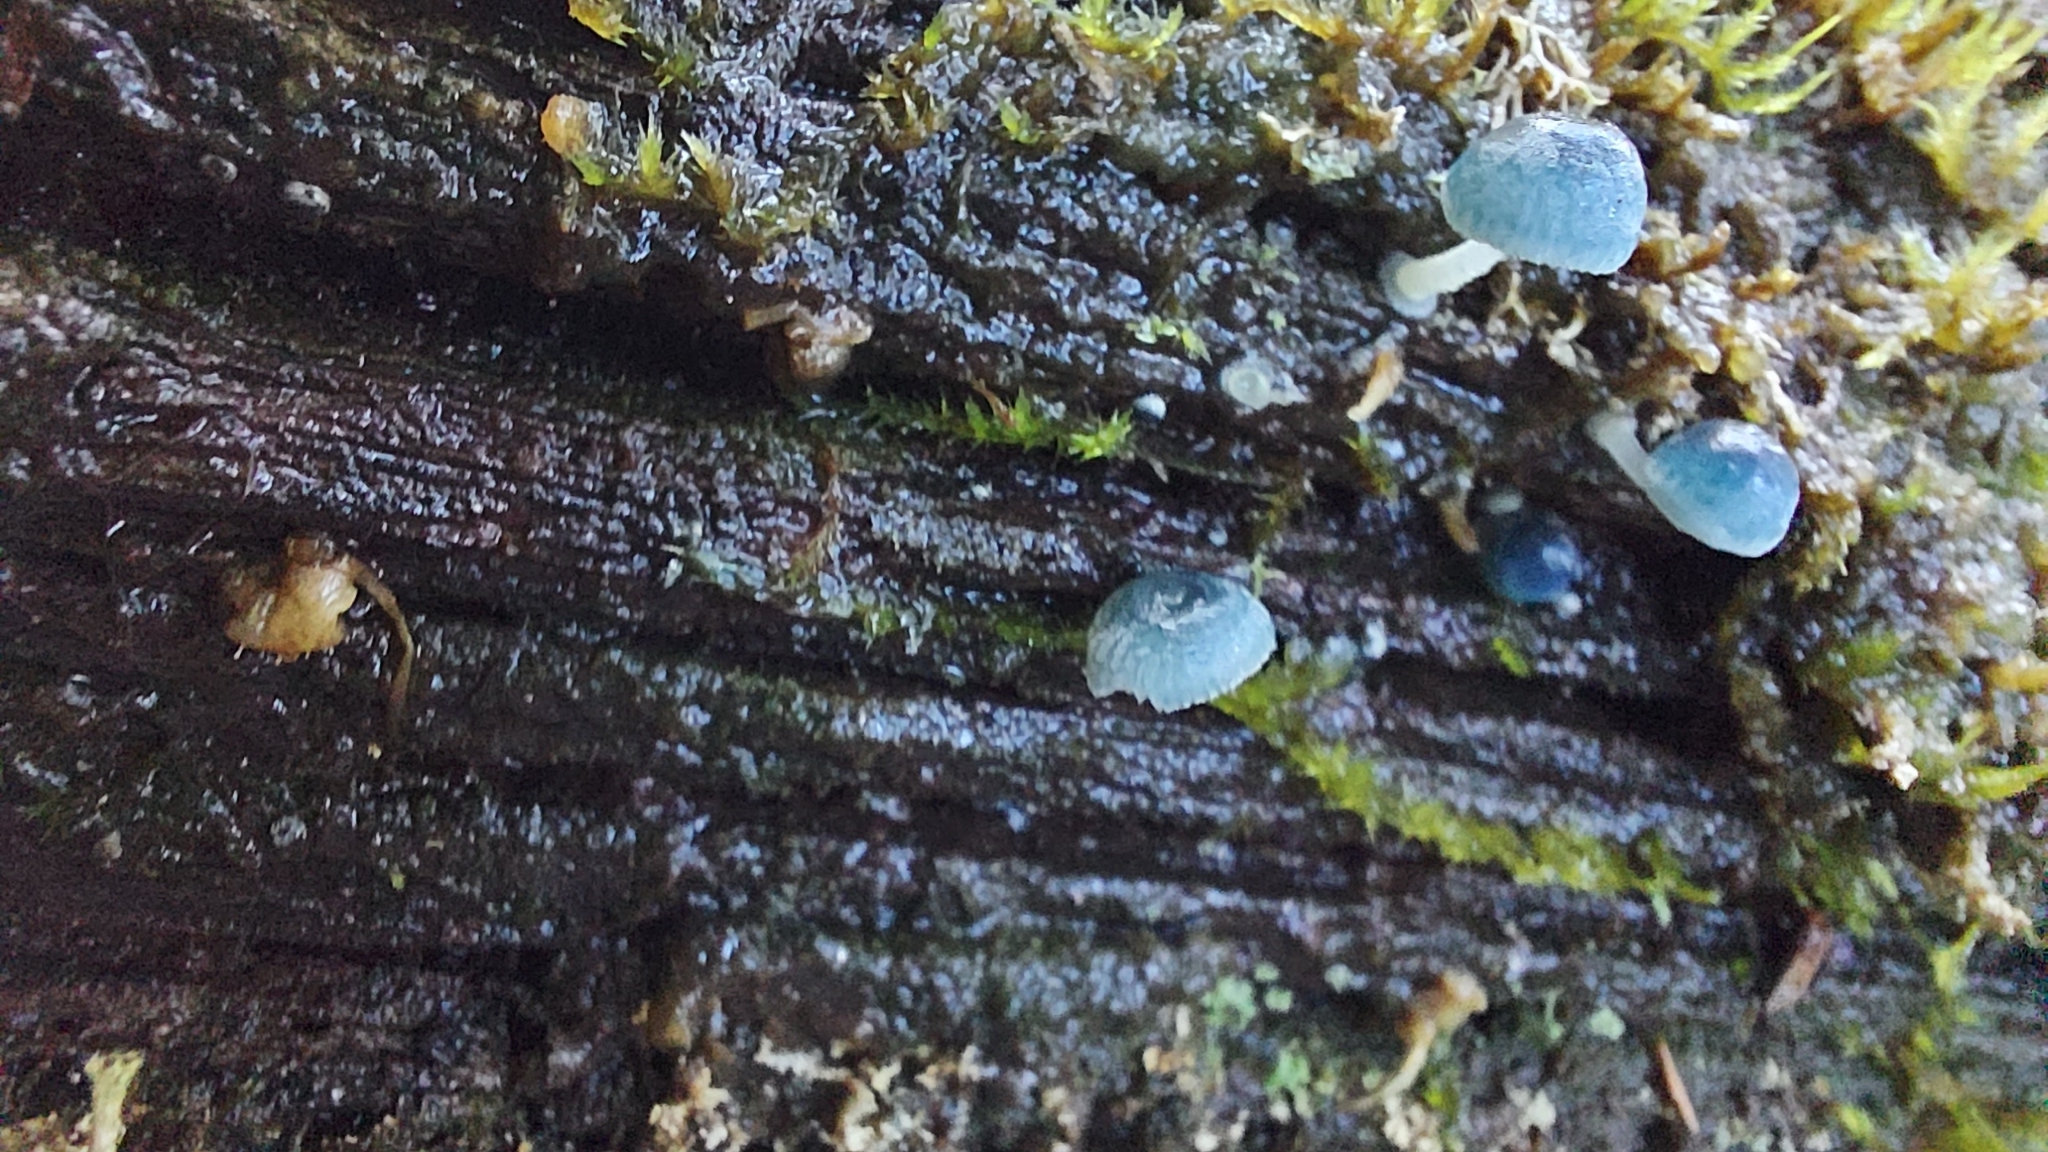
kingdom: Fungi
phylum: Basidiomycota
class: Agaricomycetes
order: Agaricales
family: Mycenaceae
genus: Mycena
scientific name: Mycena interrupta
